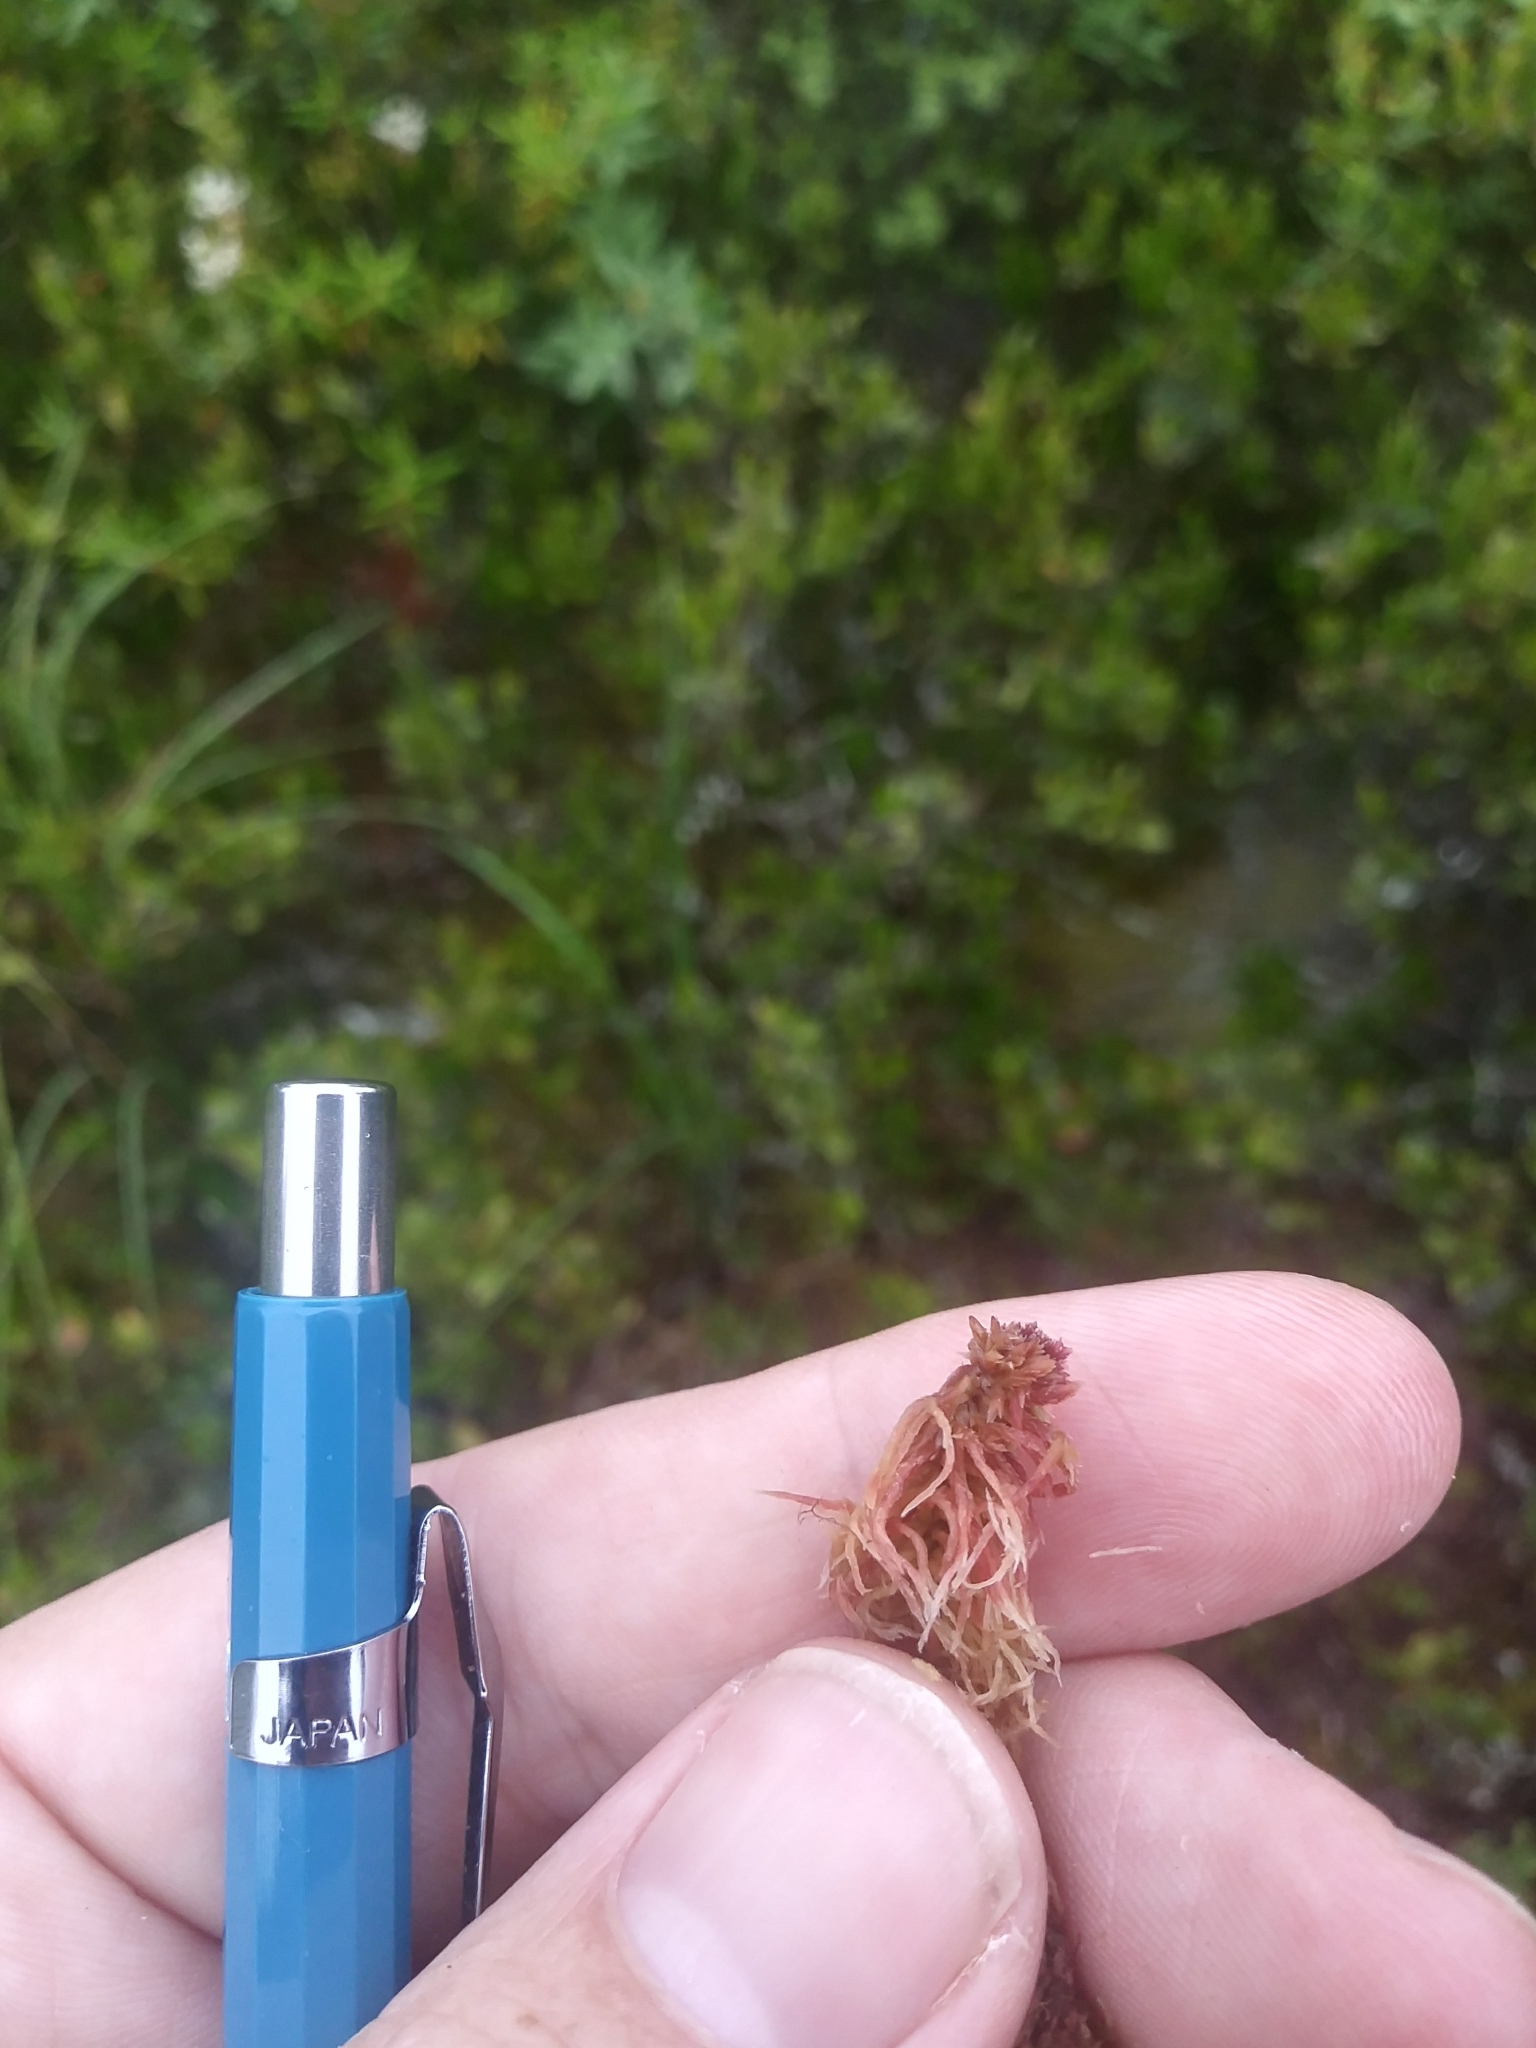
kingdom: Plantae
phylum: Bryophyta
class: Sphagnopsida
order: Sphagnales
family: Sphagnaceae
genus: Sphagnum
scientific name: Sphagnum rubellum
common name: Red peat moss
